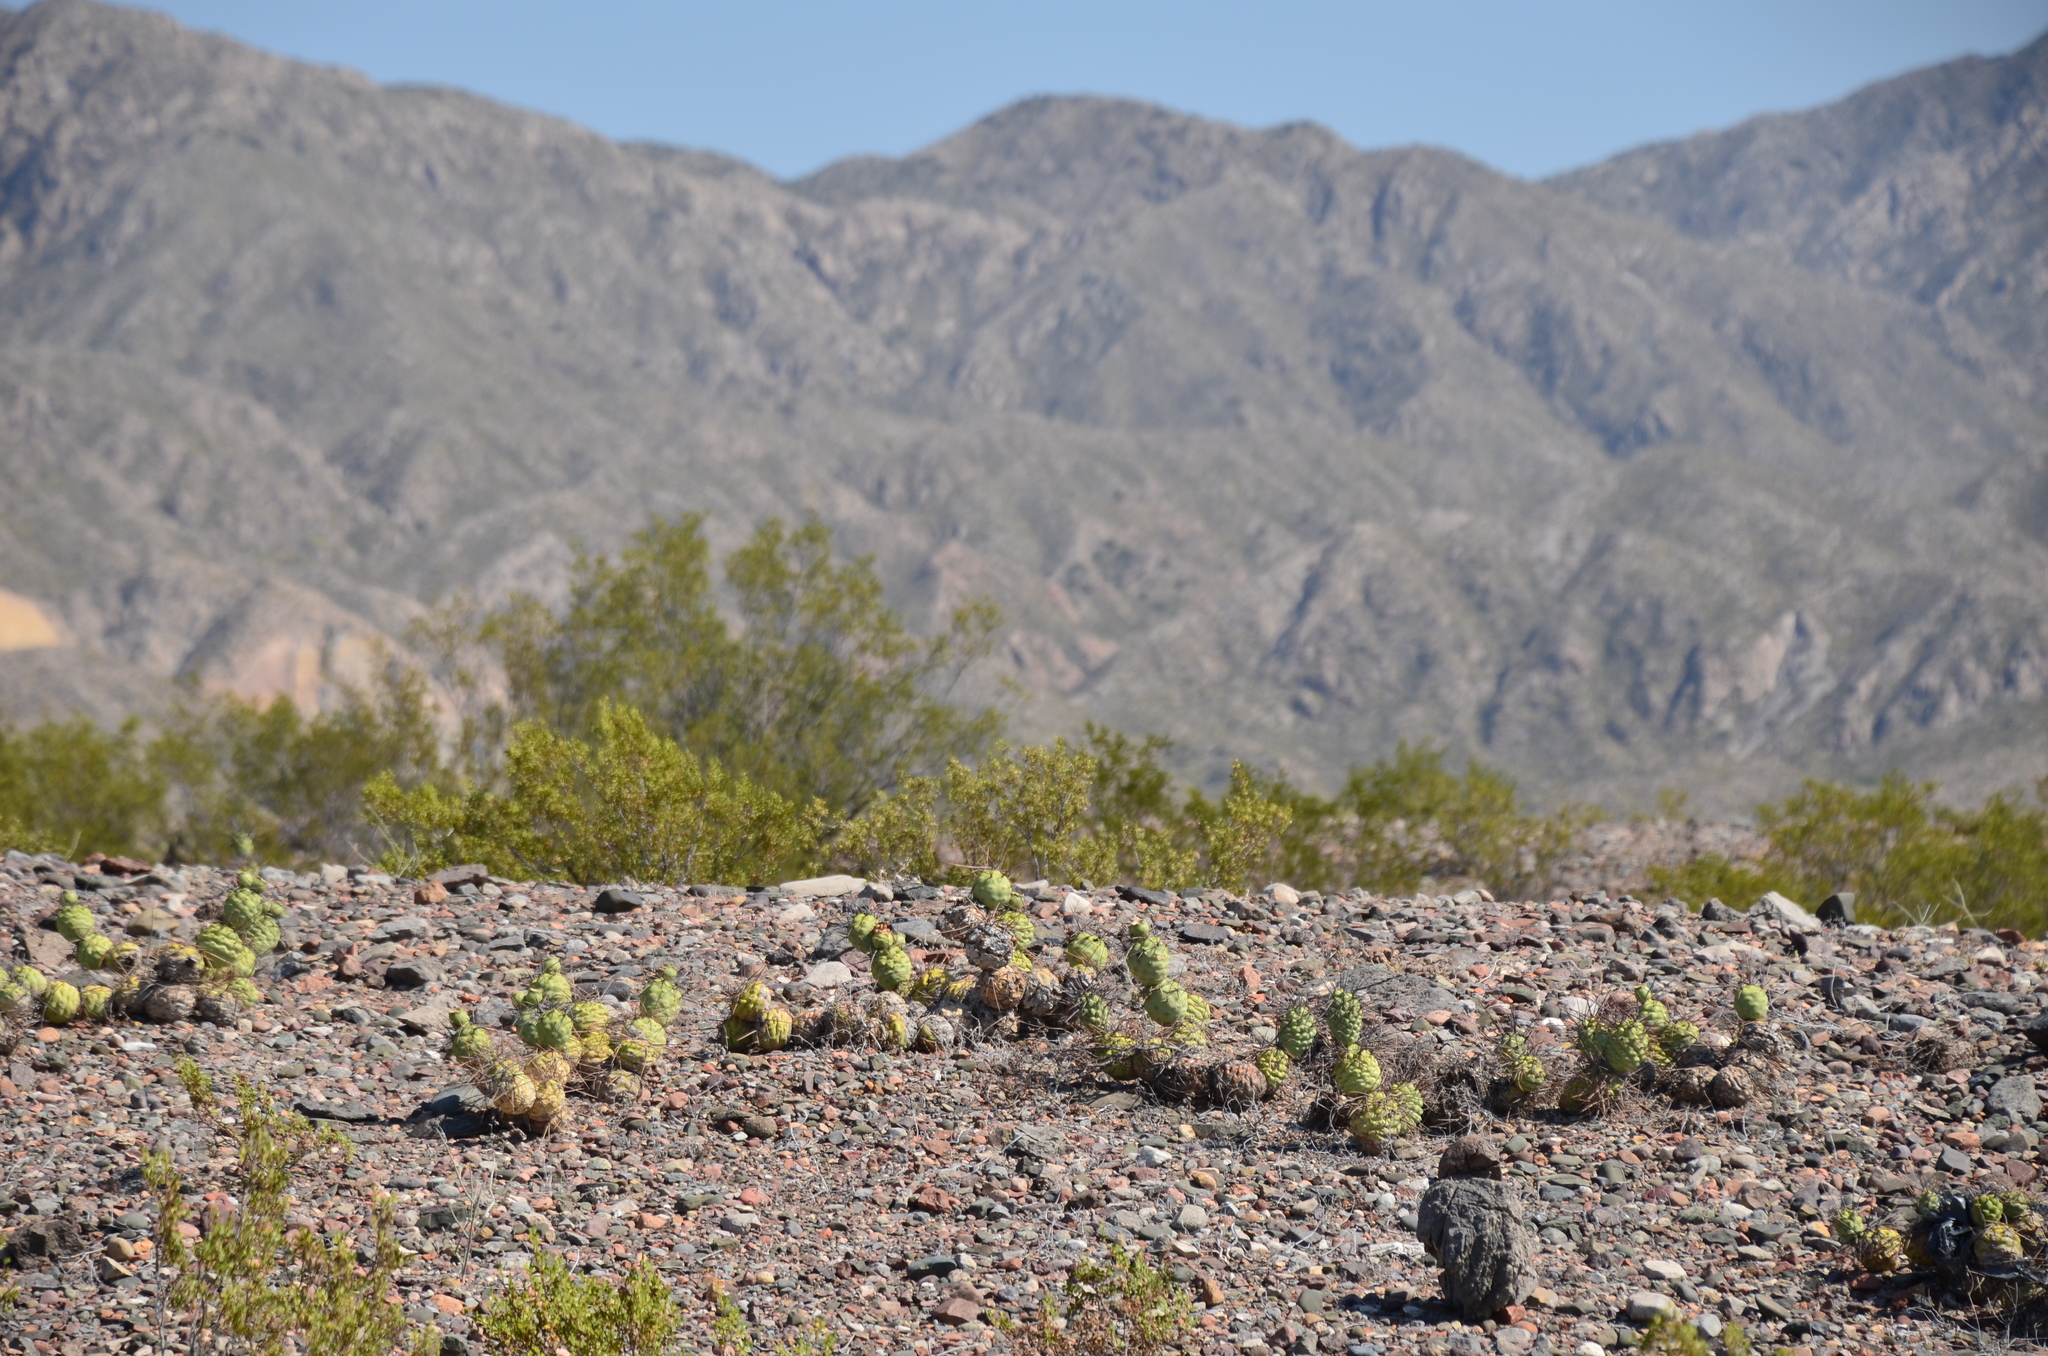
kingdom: Plantae
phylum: Tracheophyta
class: Magnoliopsida
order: Caryophyllales
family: Cactaceae
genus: Tephrocactus
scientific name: Tephrocactus aoracanthus
